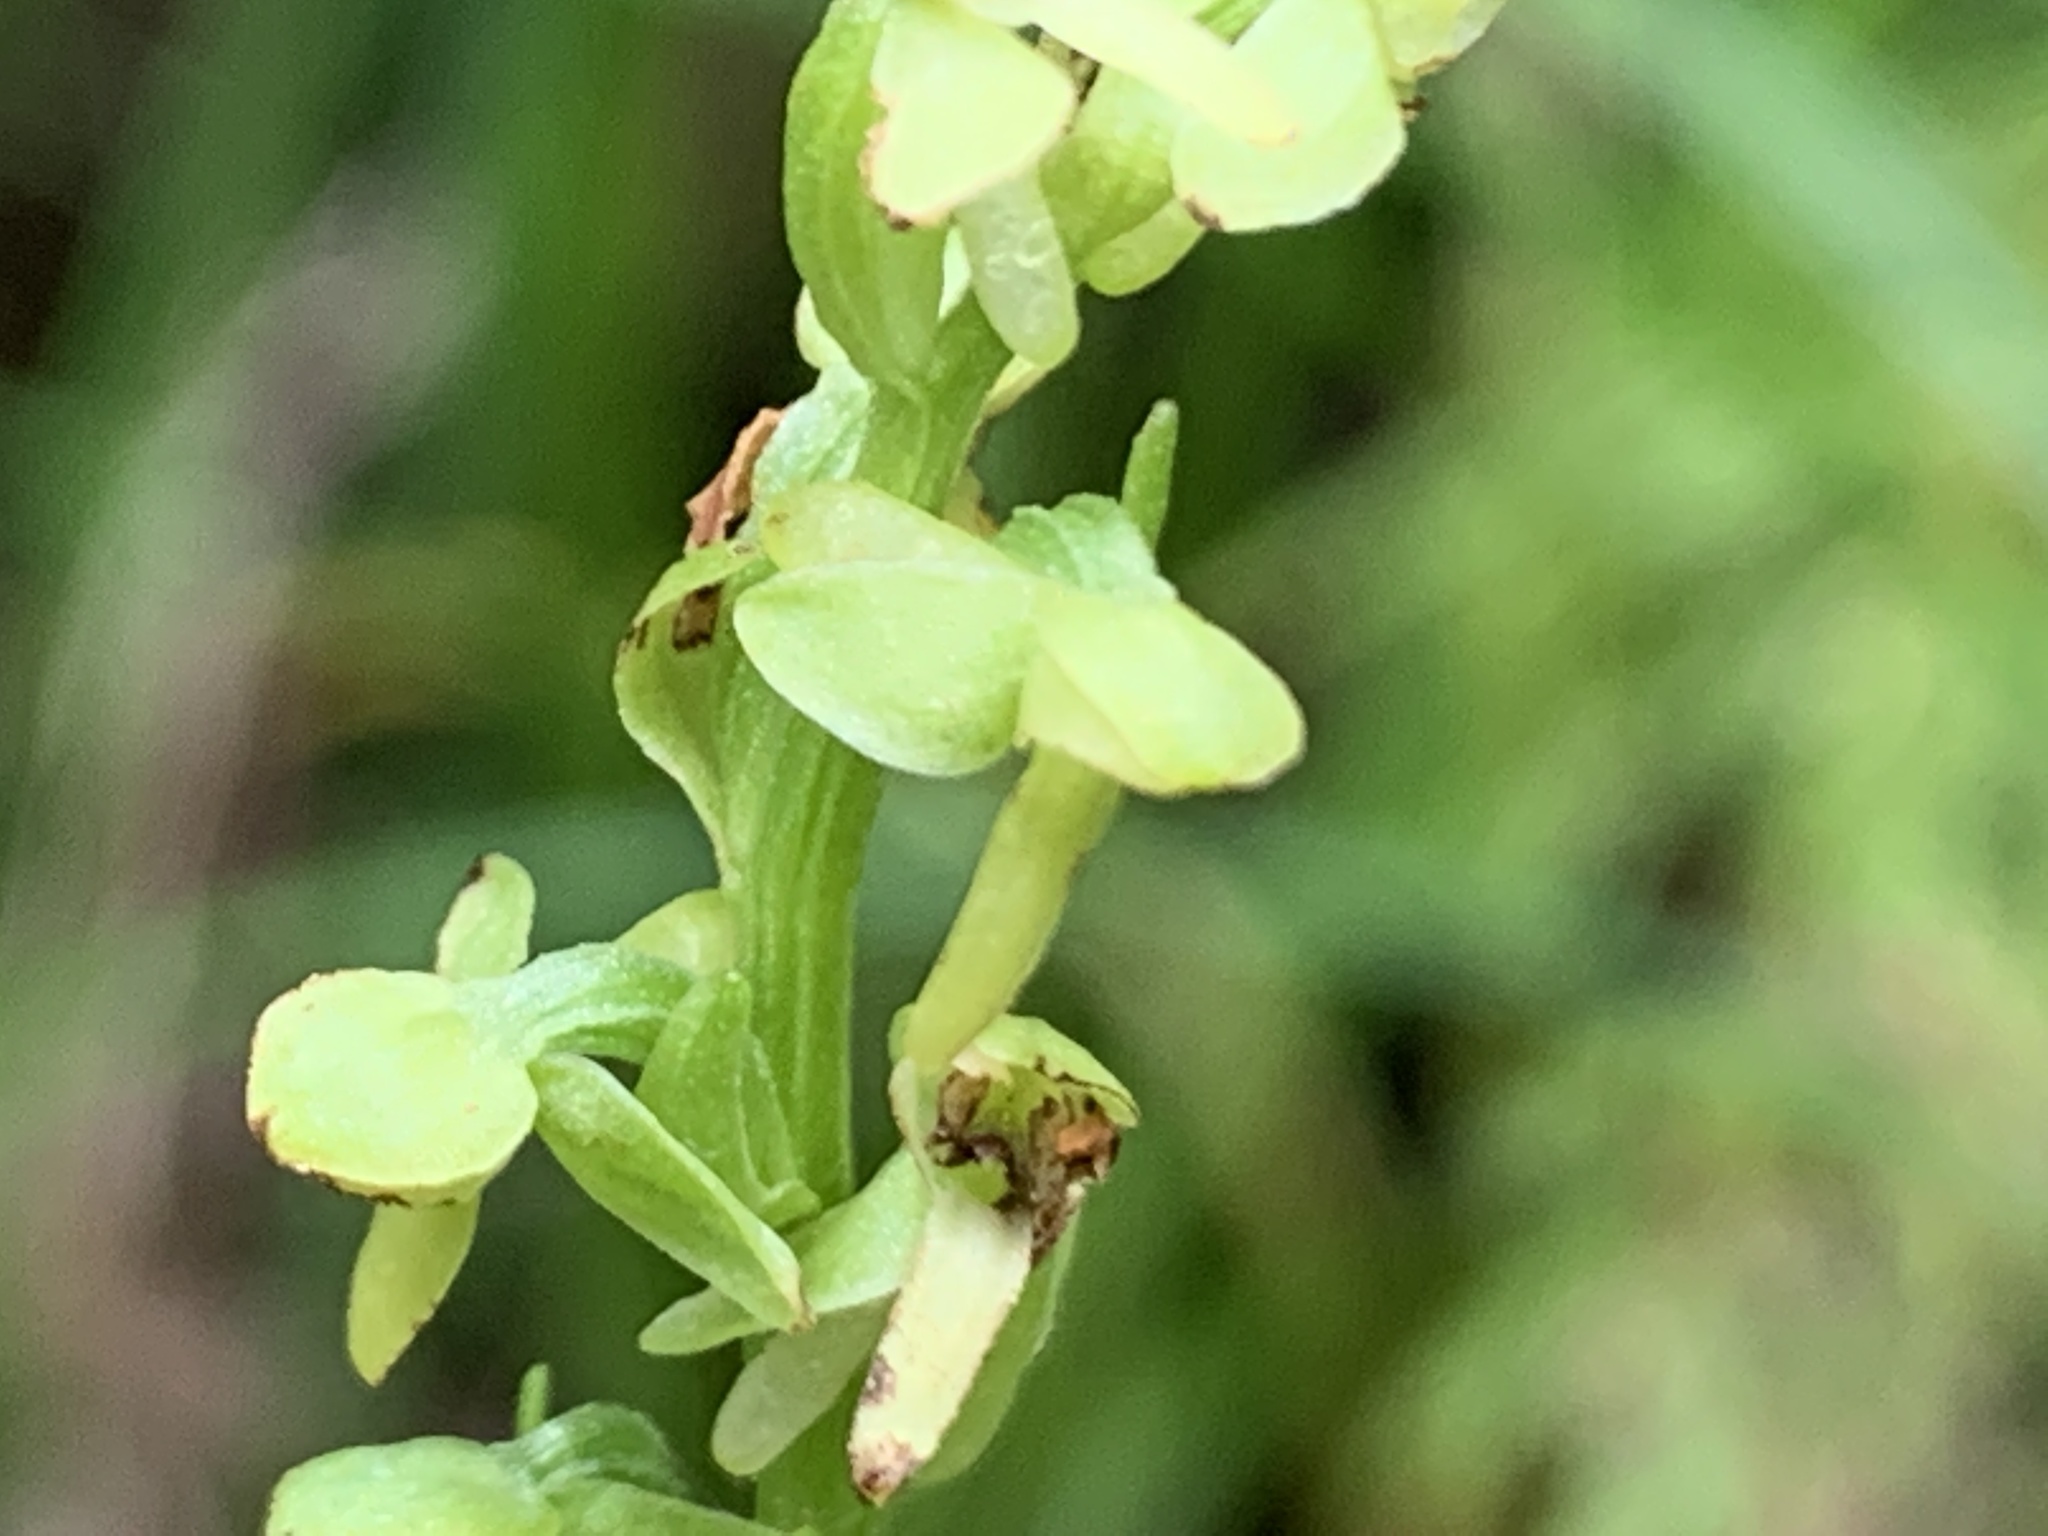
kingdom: Plantae
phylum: Tracheophyta
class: Liliopsida
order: Asparagales
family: Orchidaceae
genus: Platanthera
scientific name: Platanthera stricta
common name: Slender bog orchid
